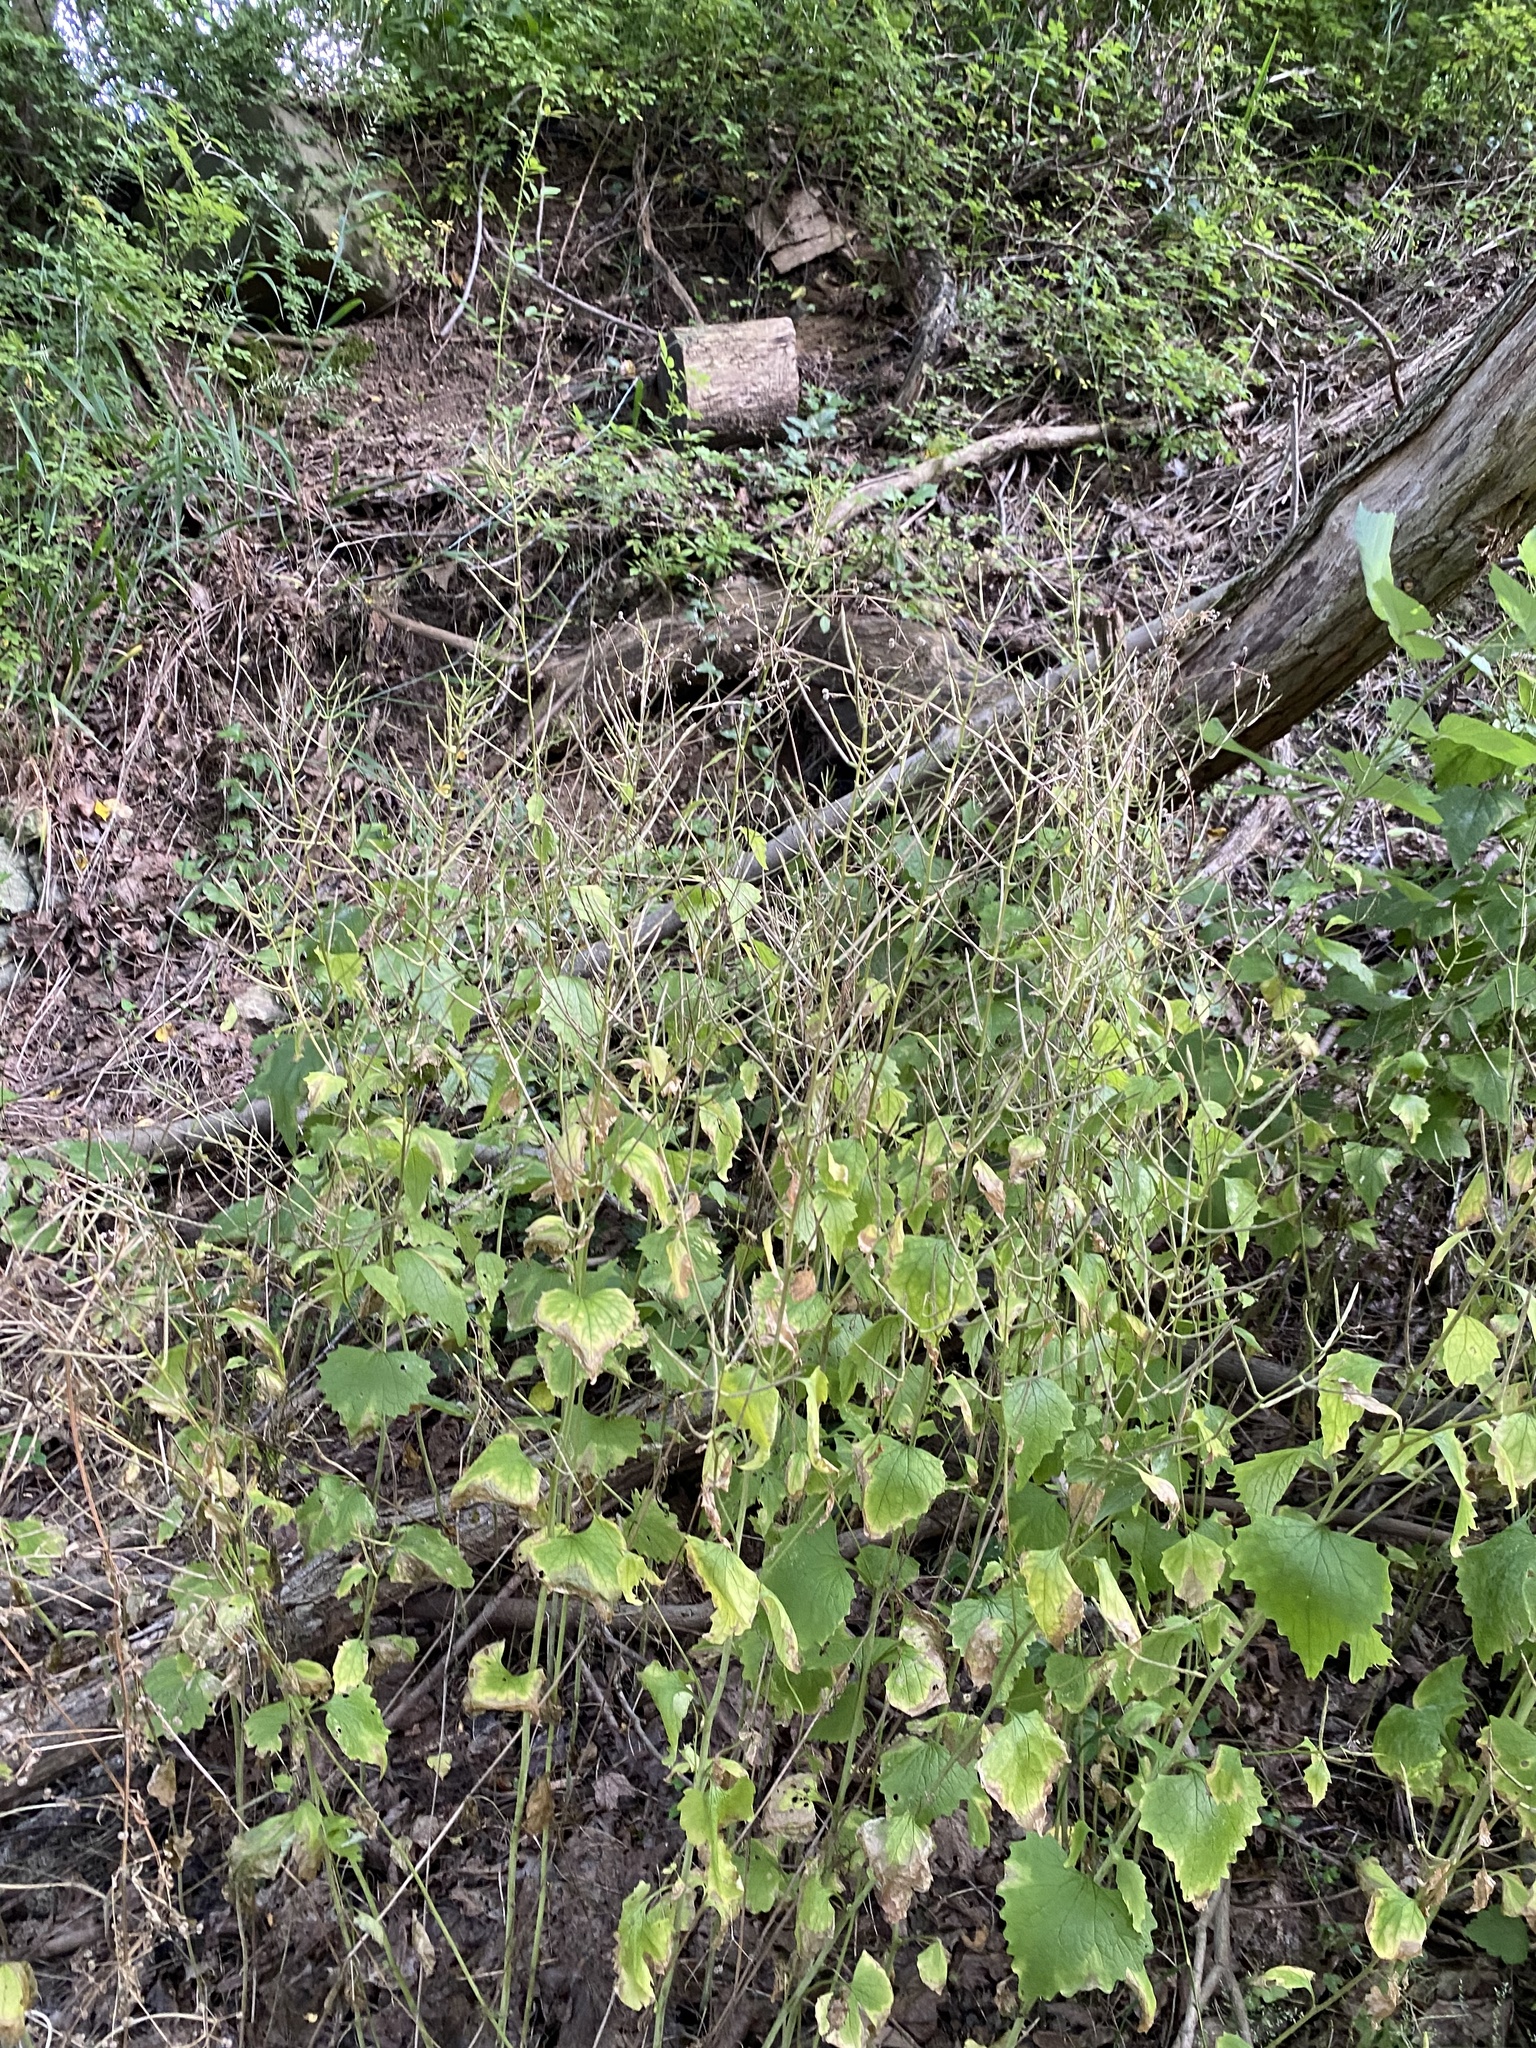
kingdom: Plantae
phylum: Tracheophyta
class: Magnoliopsida
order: Brassicales
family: Brassicaceae
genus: Alliaria
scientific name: Alliaria petiolata
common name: Garlic mustard
